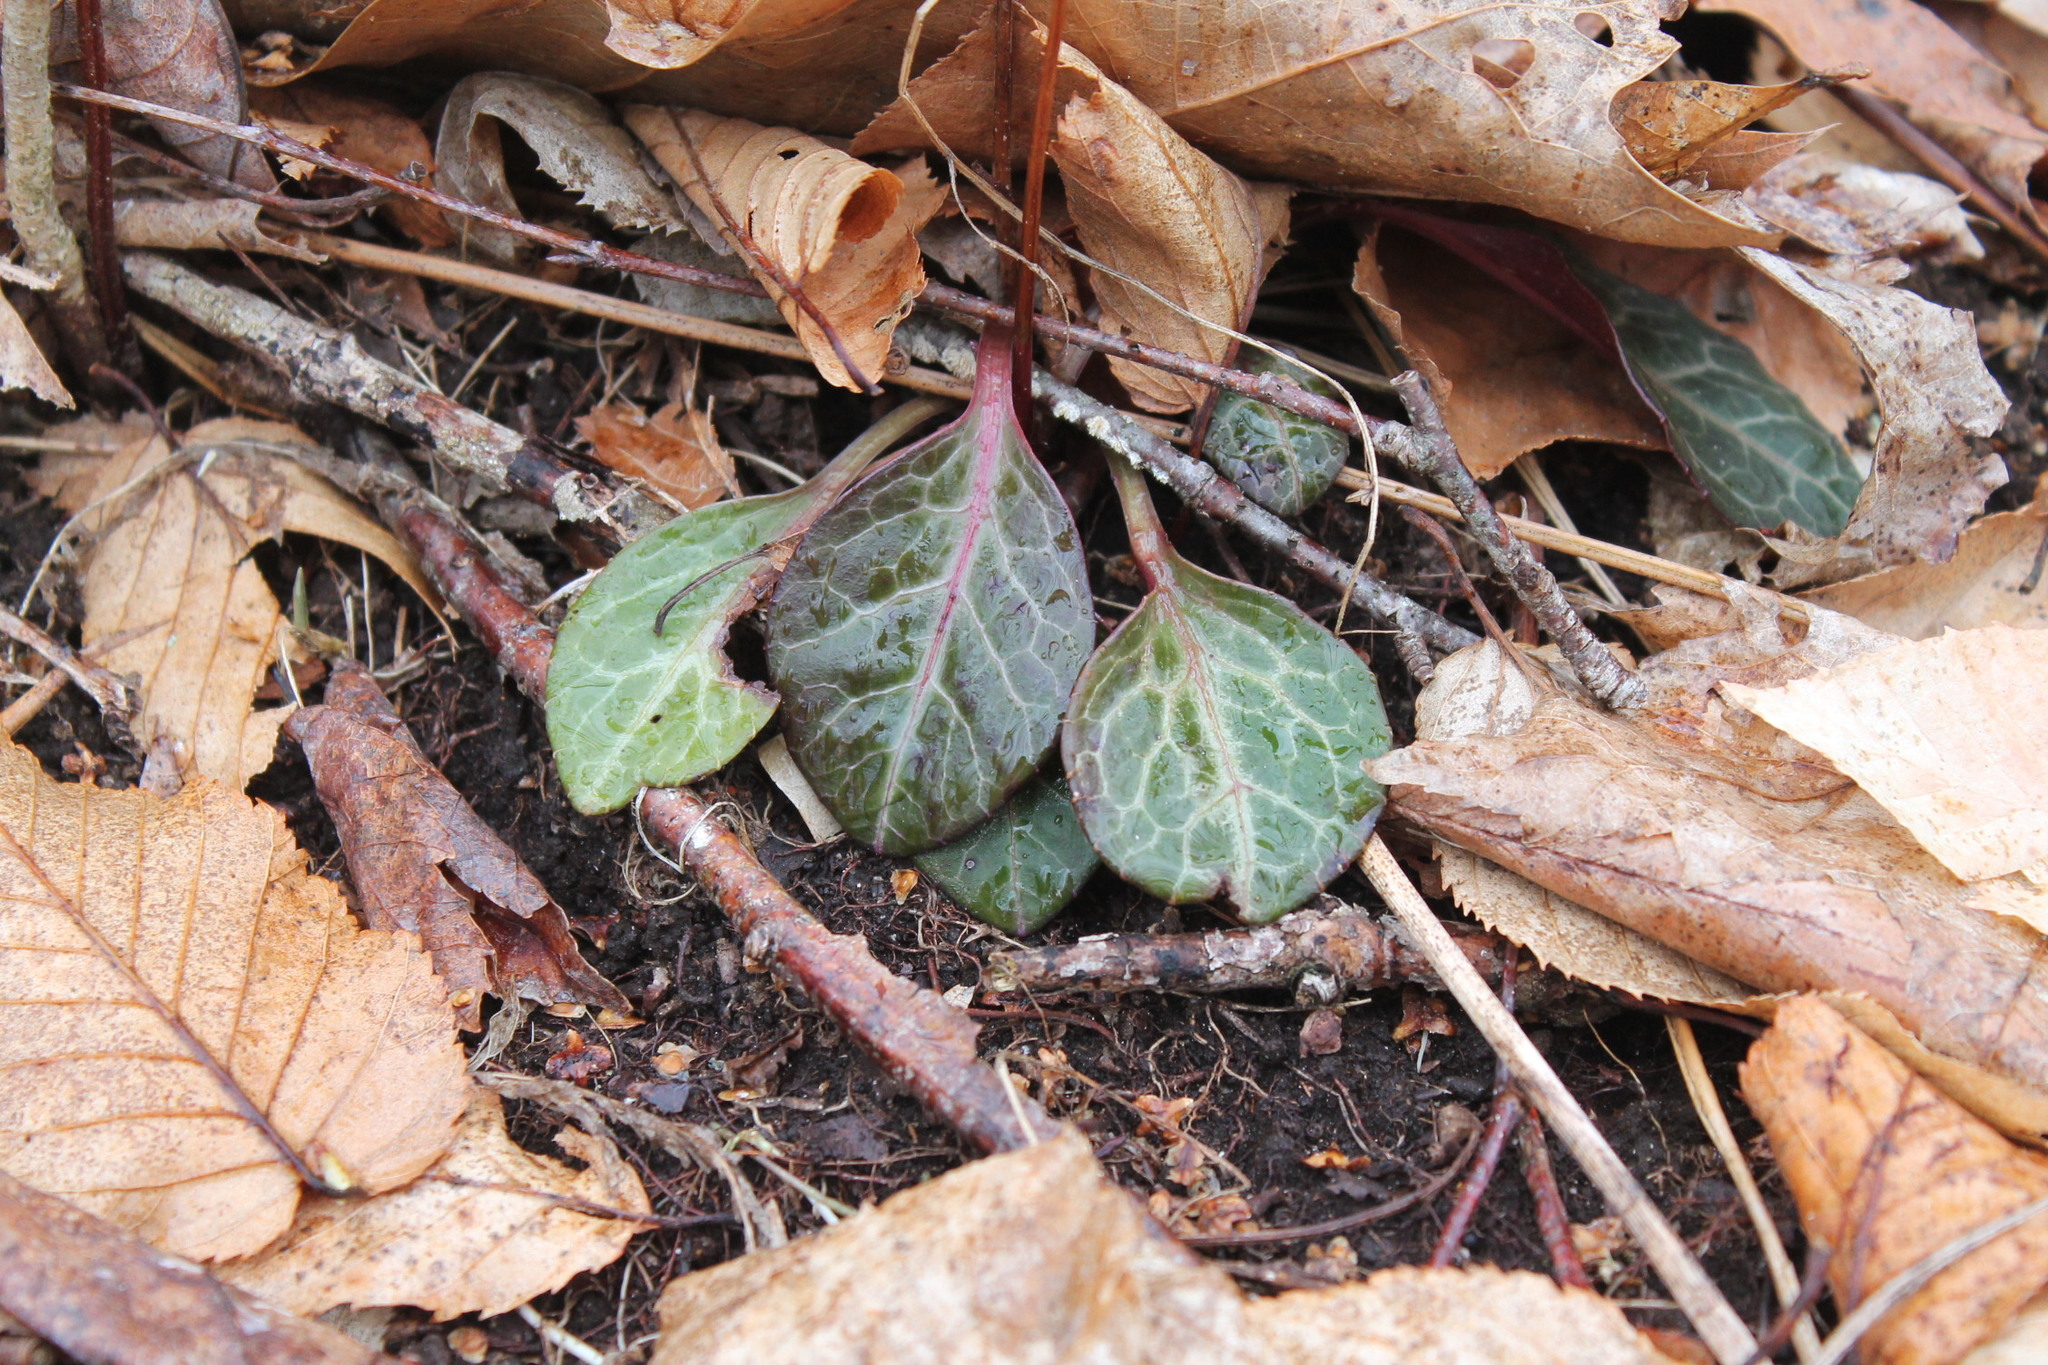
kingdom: Plantae
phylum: Tracheophyta
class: Magnoliopsida
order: Ericales
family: Ericaceae
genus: Pyrola
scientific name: Pyrola americana
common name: American wintergreen
